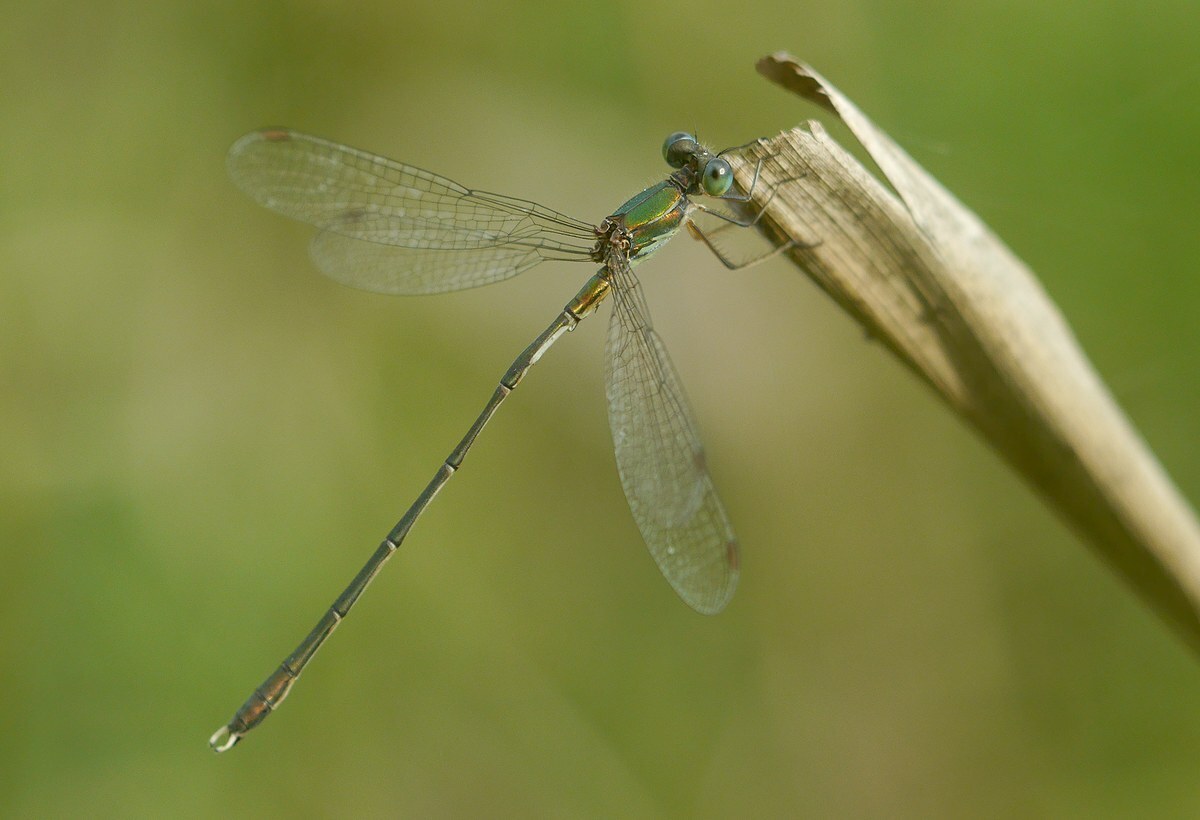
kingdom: Animalia
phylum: Arthropoda
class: Insecta
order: Odonata
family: Lestidae
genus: Chalcolestes
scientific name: Chalcolestes parvidens
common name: Eastern willow spreadwing
